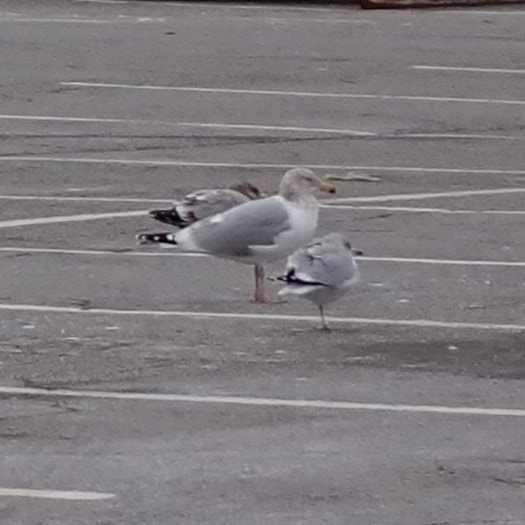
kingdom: Animalia
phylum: Chordata
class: Aves
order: Charadriiformes
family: Laridae
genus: Larus
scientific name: Larus argentatus
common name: Herring gull
